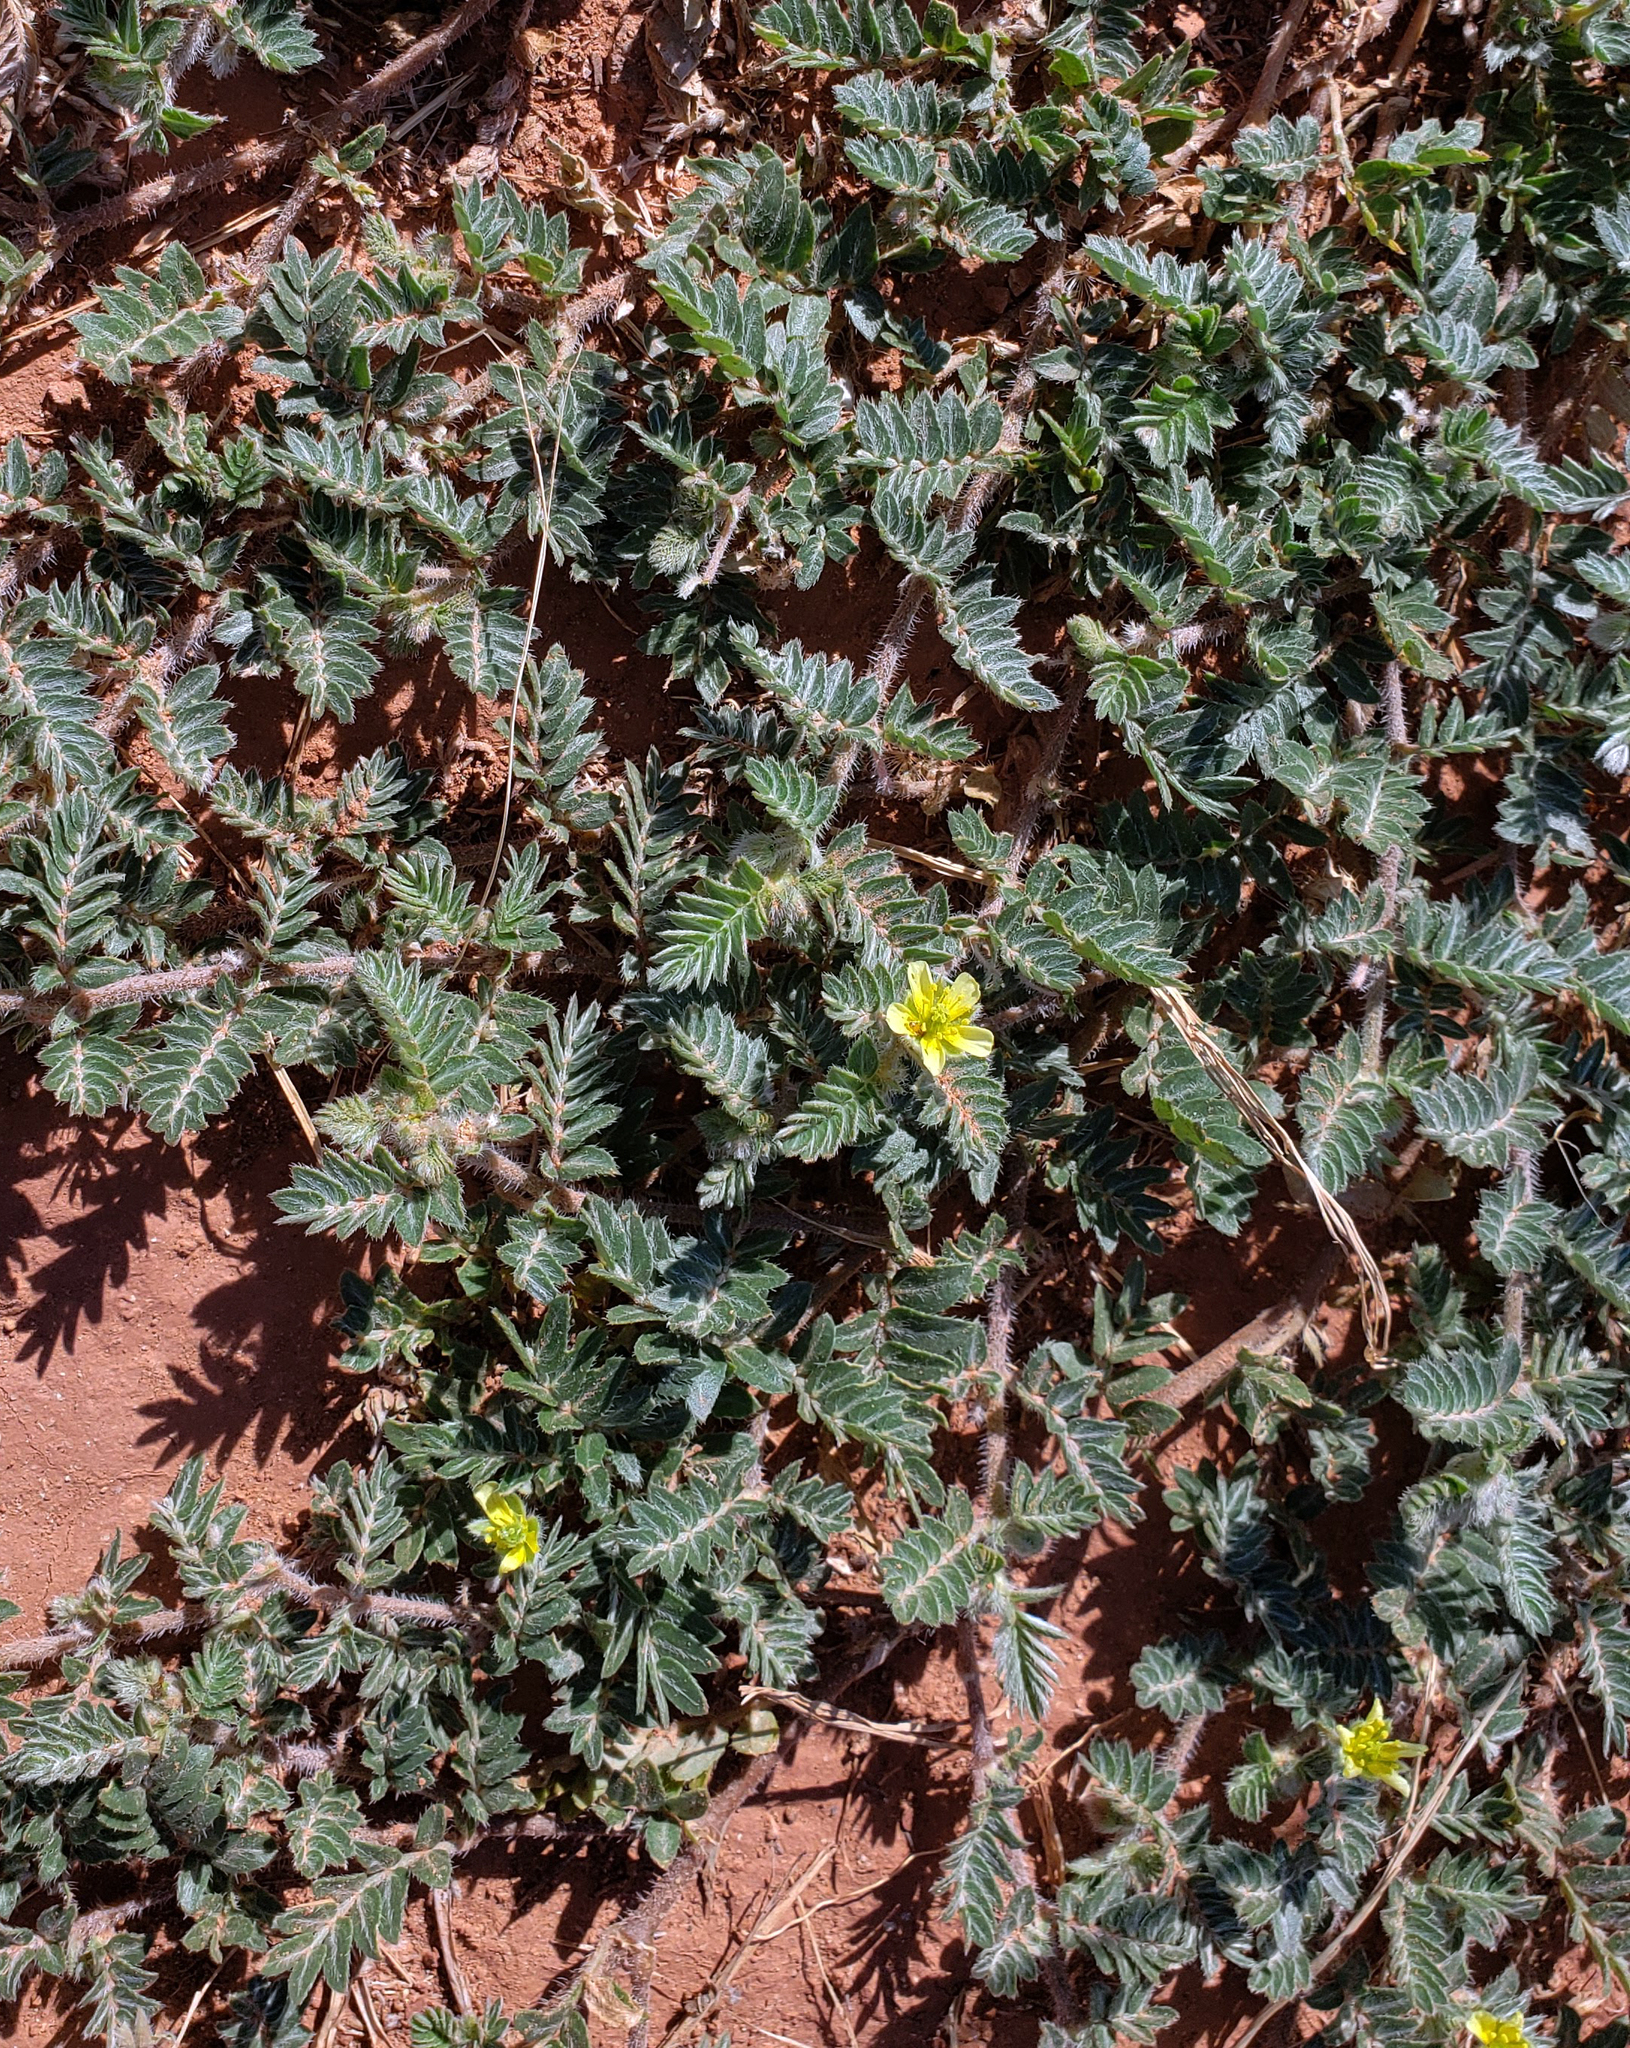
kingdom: Plantae
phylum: Tracheophyta
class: Magnoliopsida
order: Zygophyllales
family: Zygophyllaceae
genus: Tribulus
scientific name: Tribulus terrestris
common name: Puncturevine
